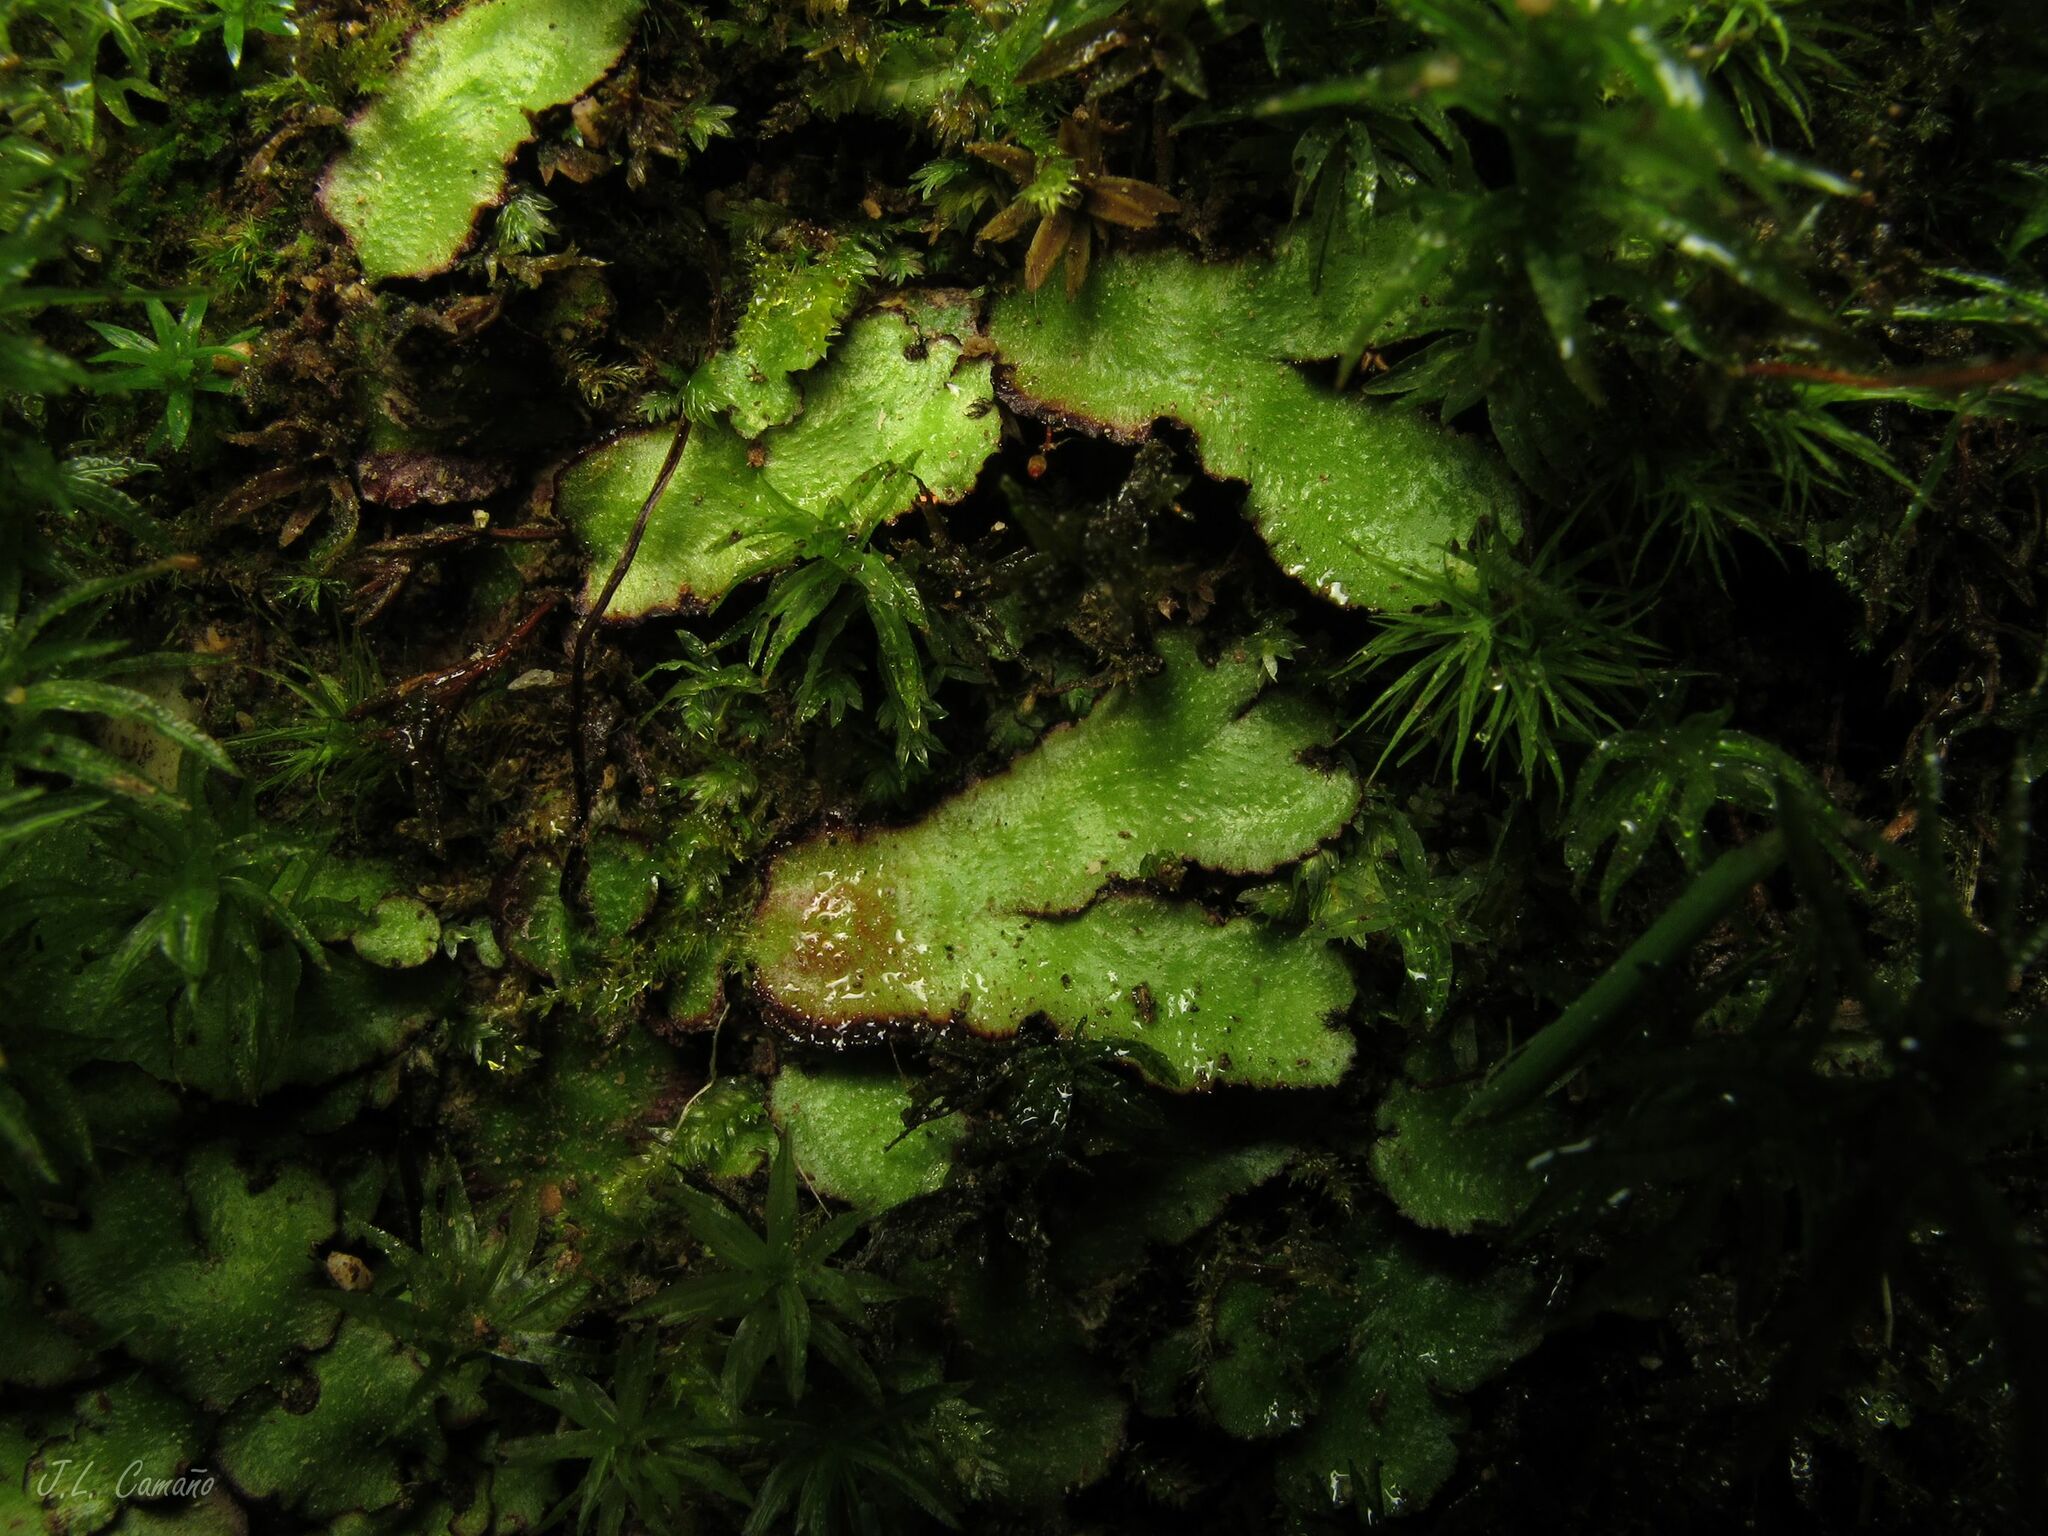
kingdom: Plantae
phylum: Marchantiophyta
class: Marchantiopsida
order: Marchantiales
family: Aytoniaceae
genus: Reboulia
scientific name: Reboulia hemisphaerica
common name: Purple-margined liverwort
